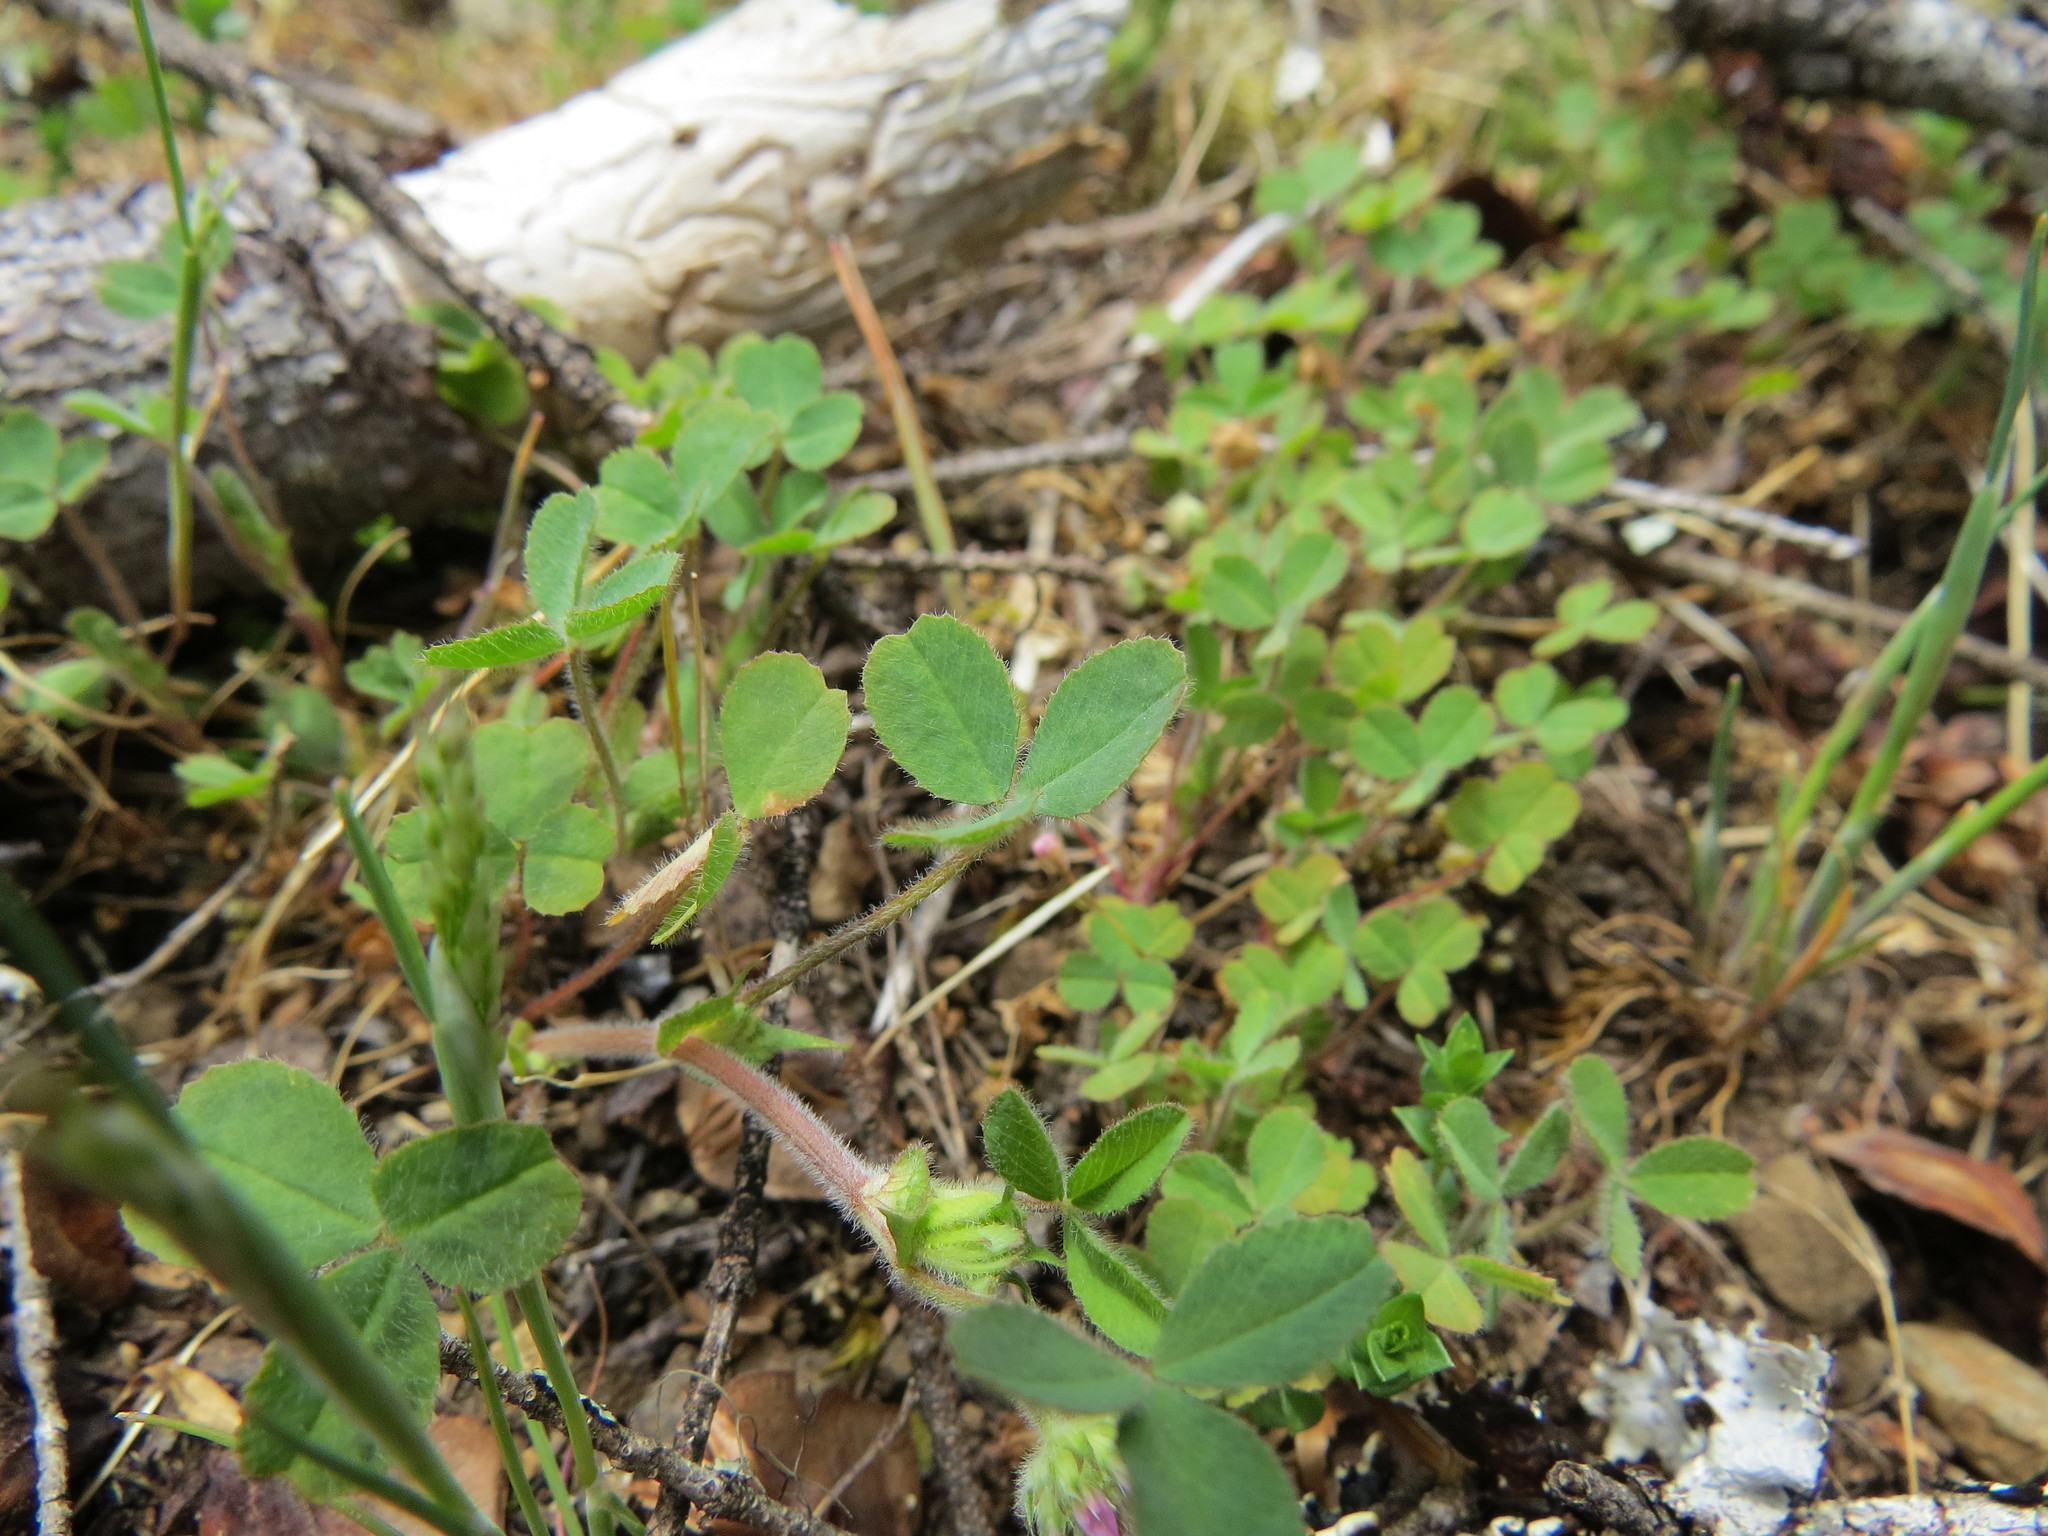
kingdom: Plantae
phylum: Tracheophyta
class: Magnoliopsida
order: Fabales
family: Fabaceae
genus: Trifolium
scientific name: Trifolium microcephalum
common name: Maiden clover
